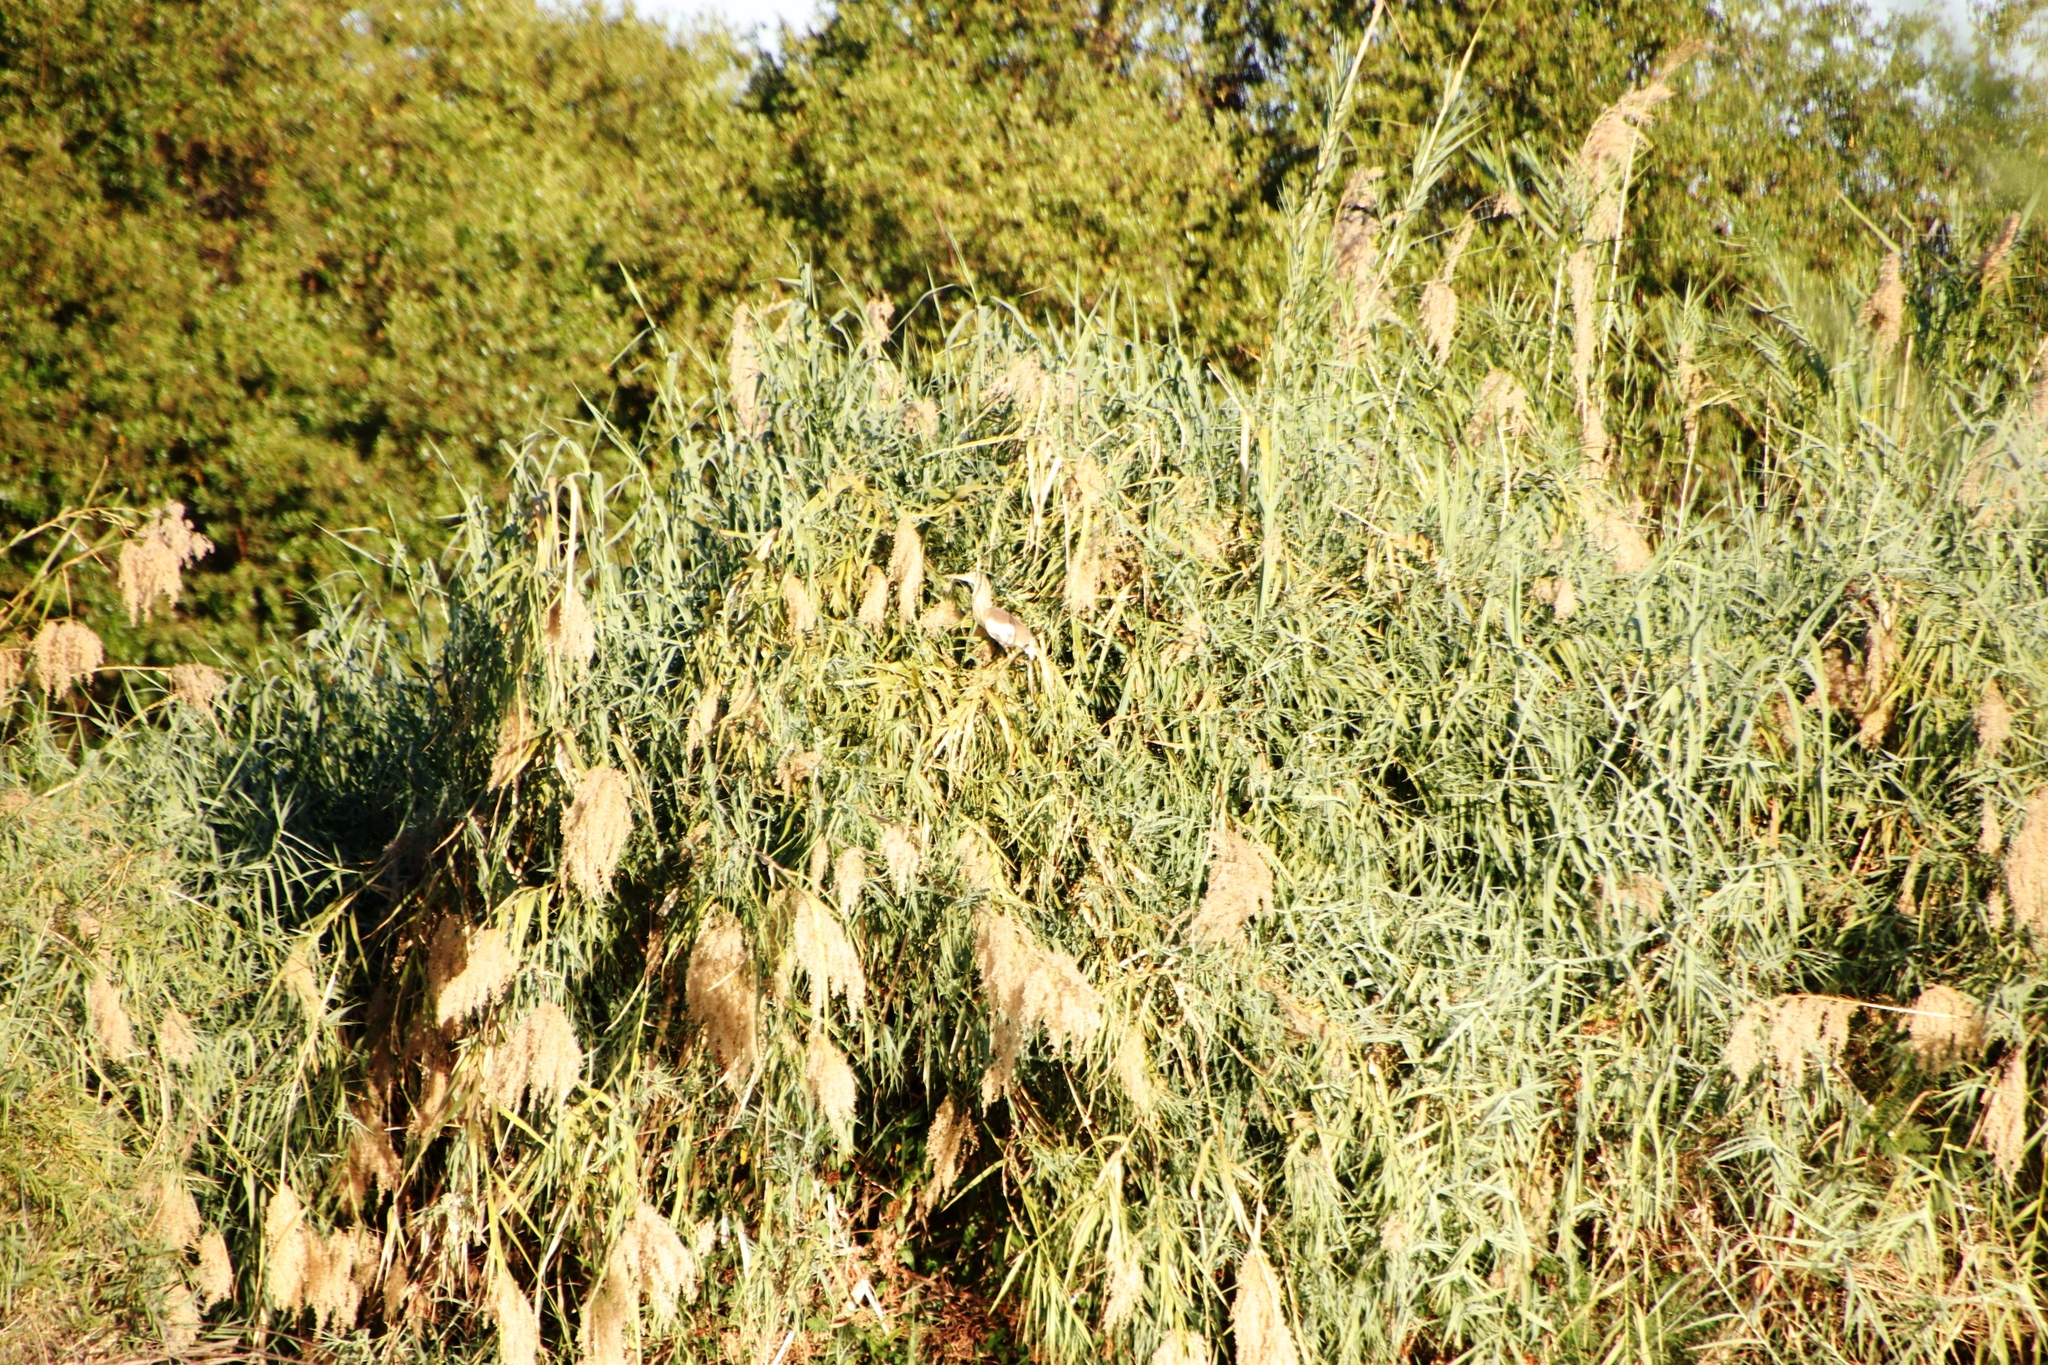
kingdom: Plantae
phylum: Tracheophyta
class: Liliopsida
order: Poales
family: Poaceae
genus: Phragmites
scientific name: Phragmites australis
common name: Common reed
